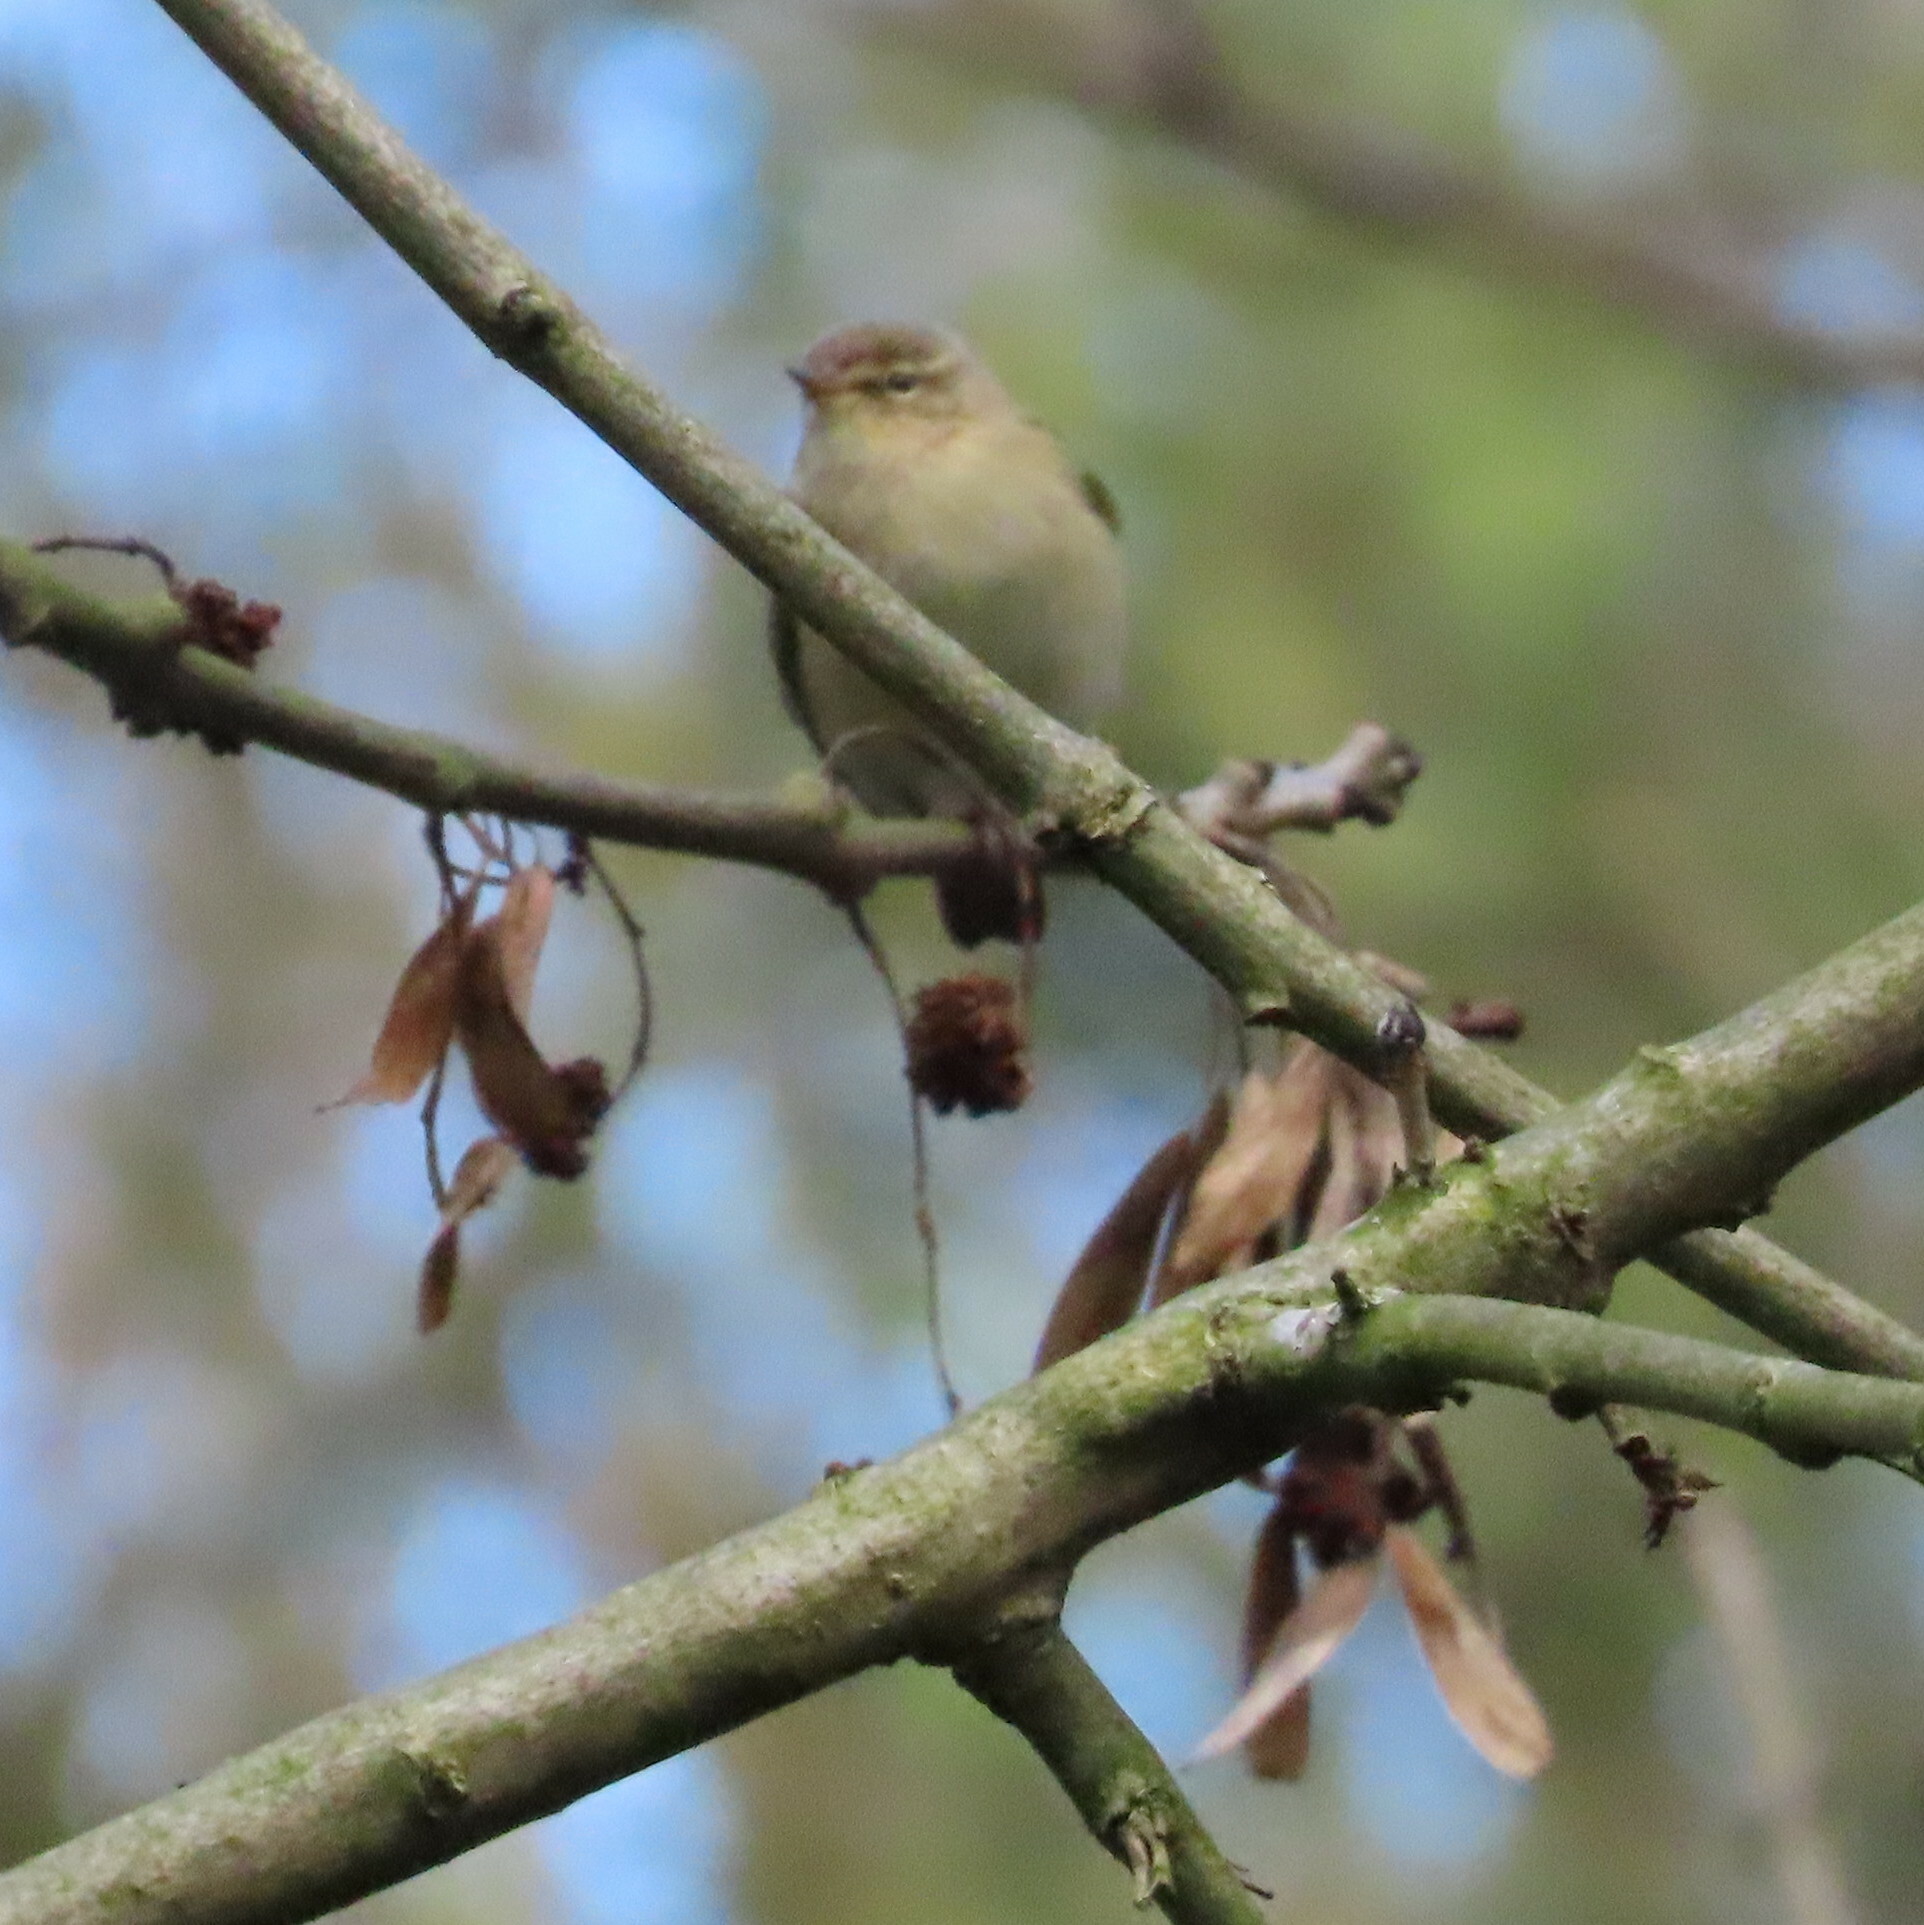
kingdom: Animalia
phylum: Chordata
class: Aves
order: Passeriformes
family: Phylloscopidae
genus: Phylloscopus
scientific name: Phylloscopus collybita
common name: Common chiffchaff
